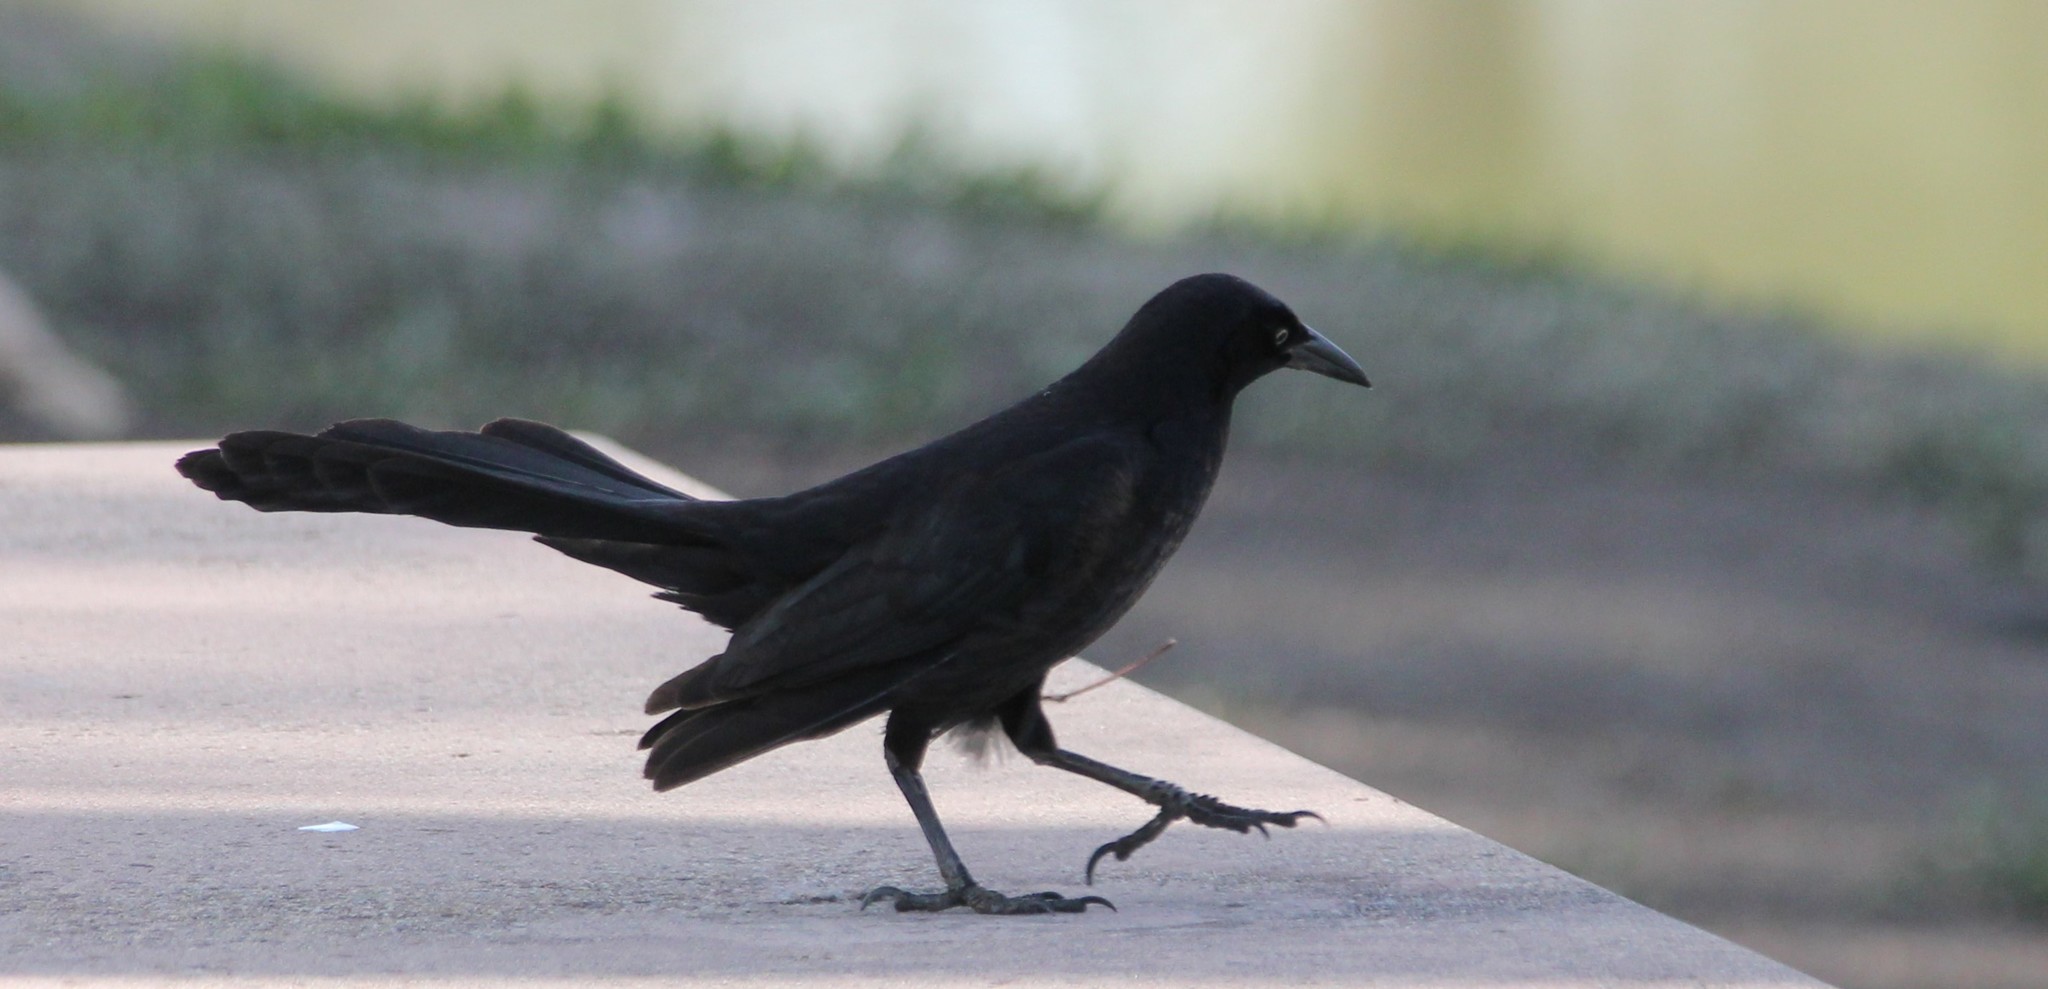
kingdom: Animalia
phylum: Chordata
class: Aves
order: Passeriformes
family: Icteridae
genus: Quiscalus
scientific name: Quiscalus mexicanus
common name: Great-tailed grackle
